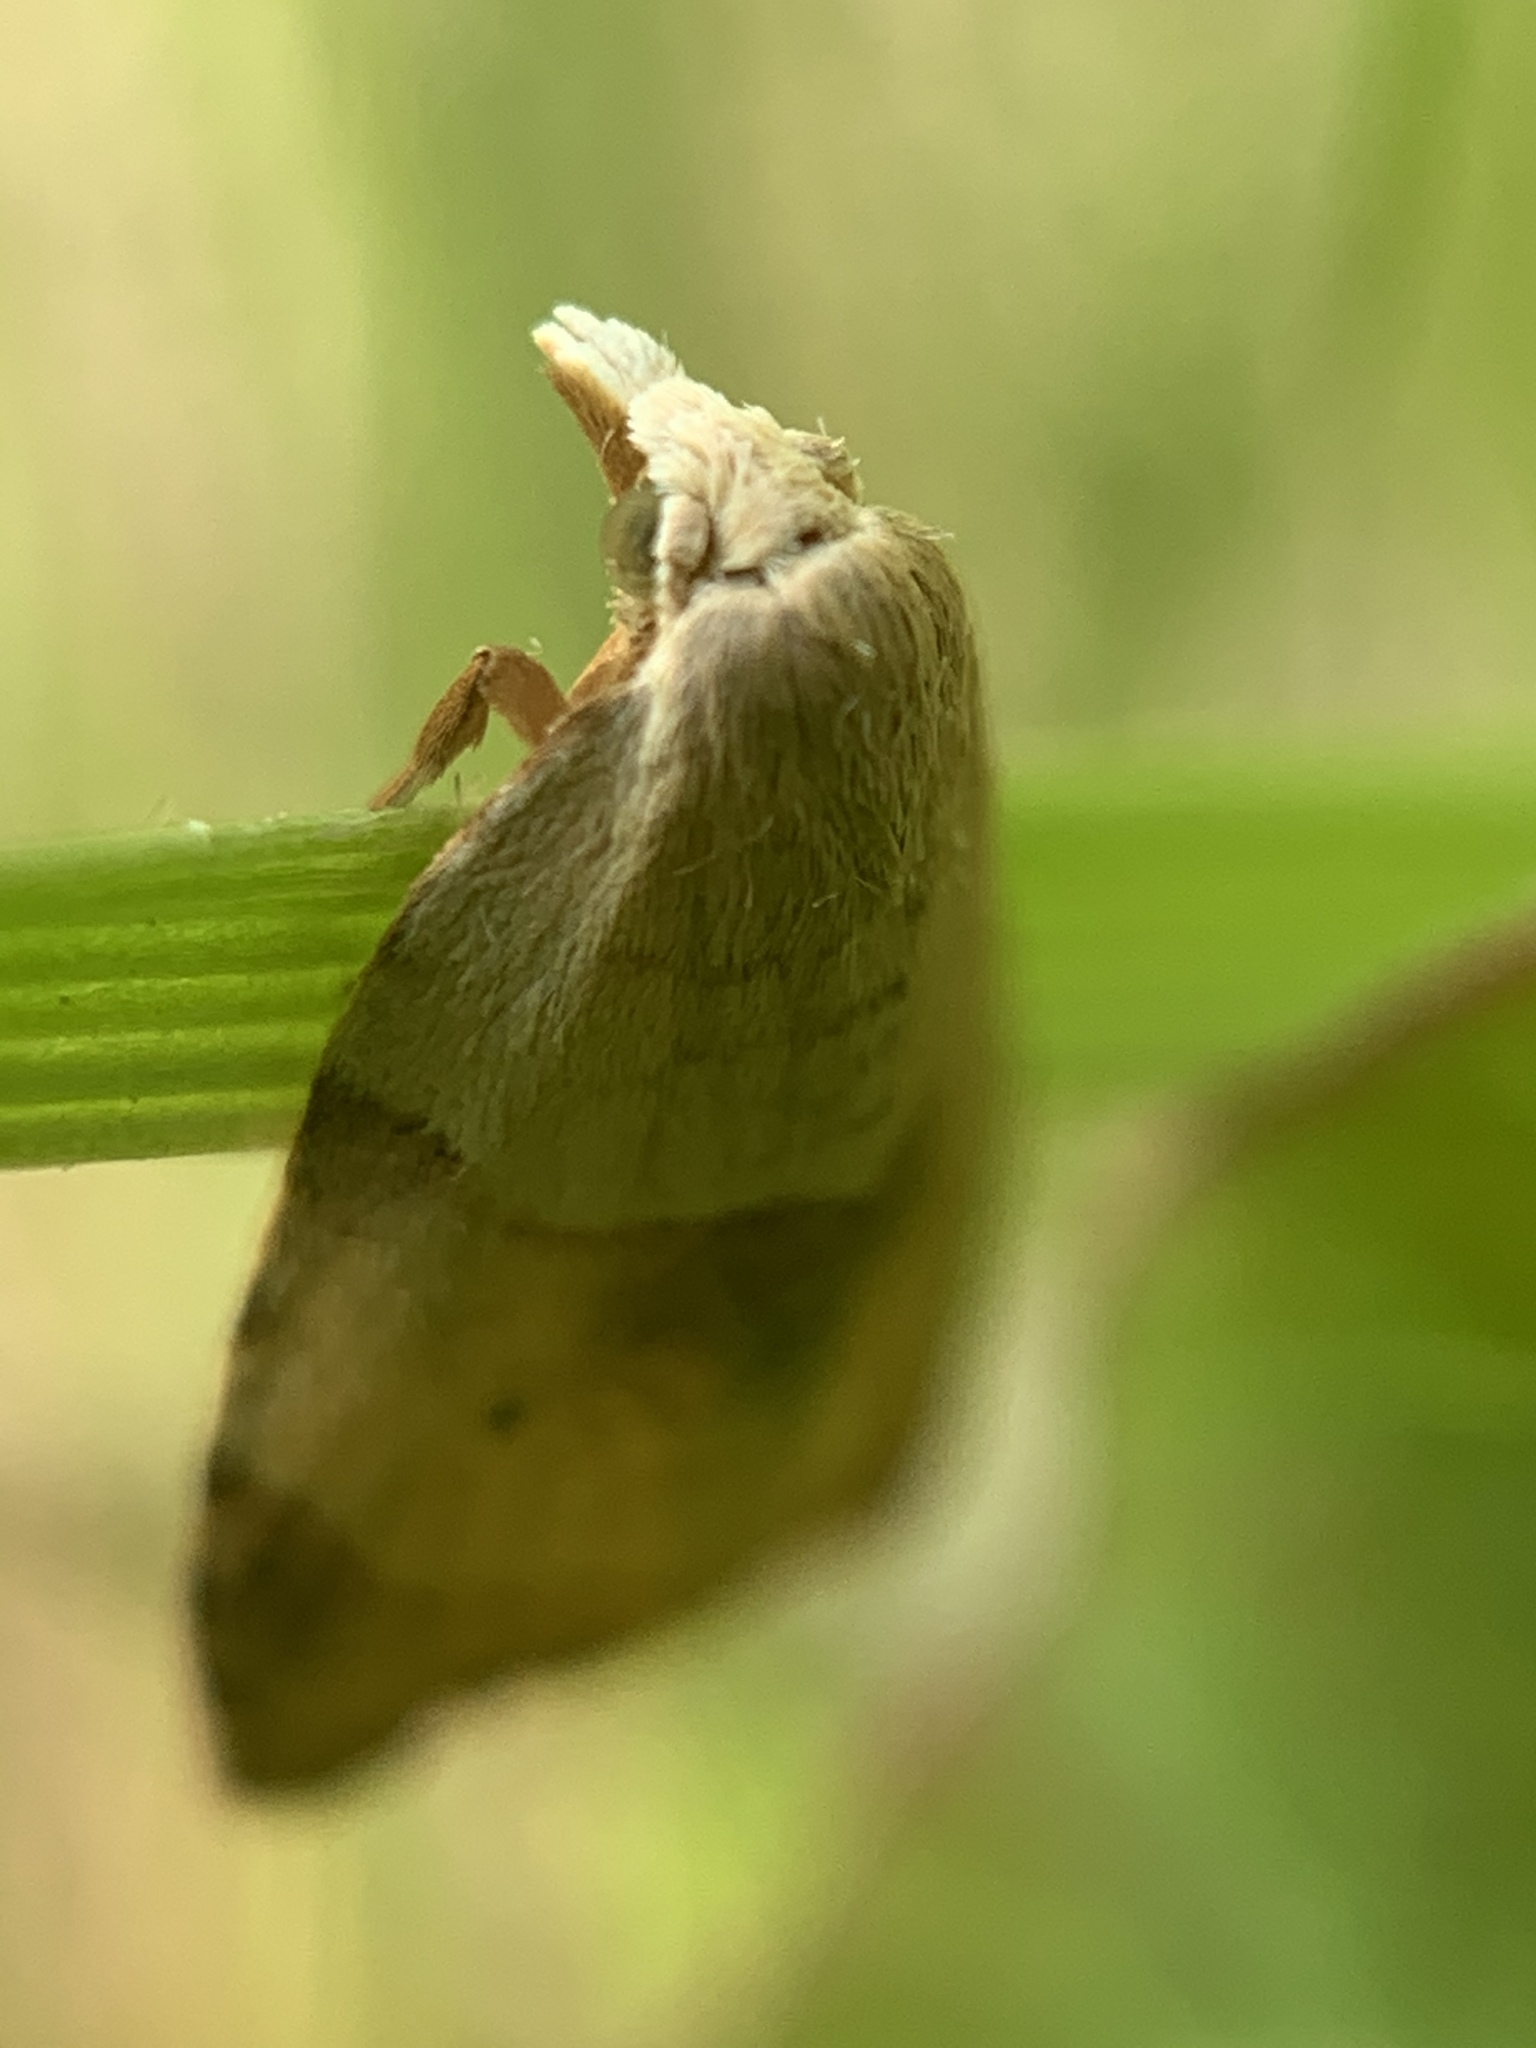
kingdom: Animalia
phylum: Arthropoda
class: Insecta
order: Lepidoptera
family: Tortricidae
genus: Coelostathma
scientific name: Coelostathma discopunctana
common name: Batman moth
